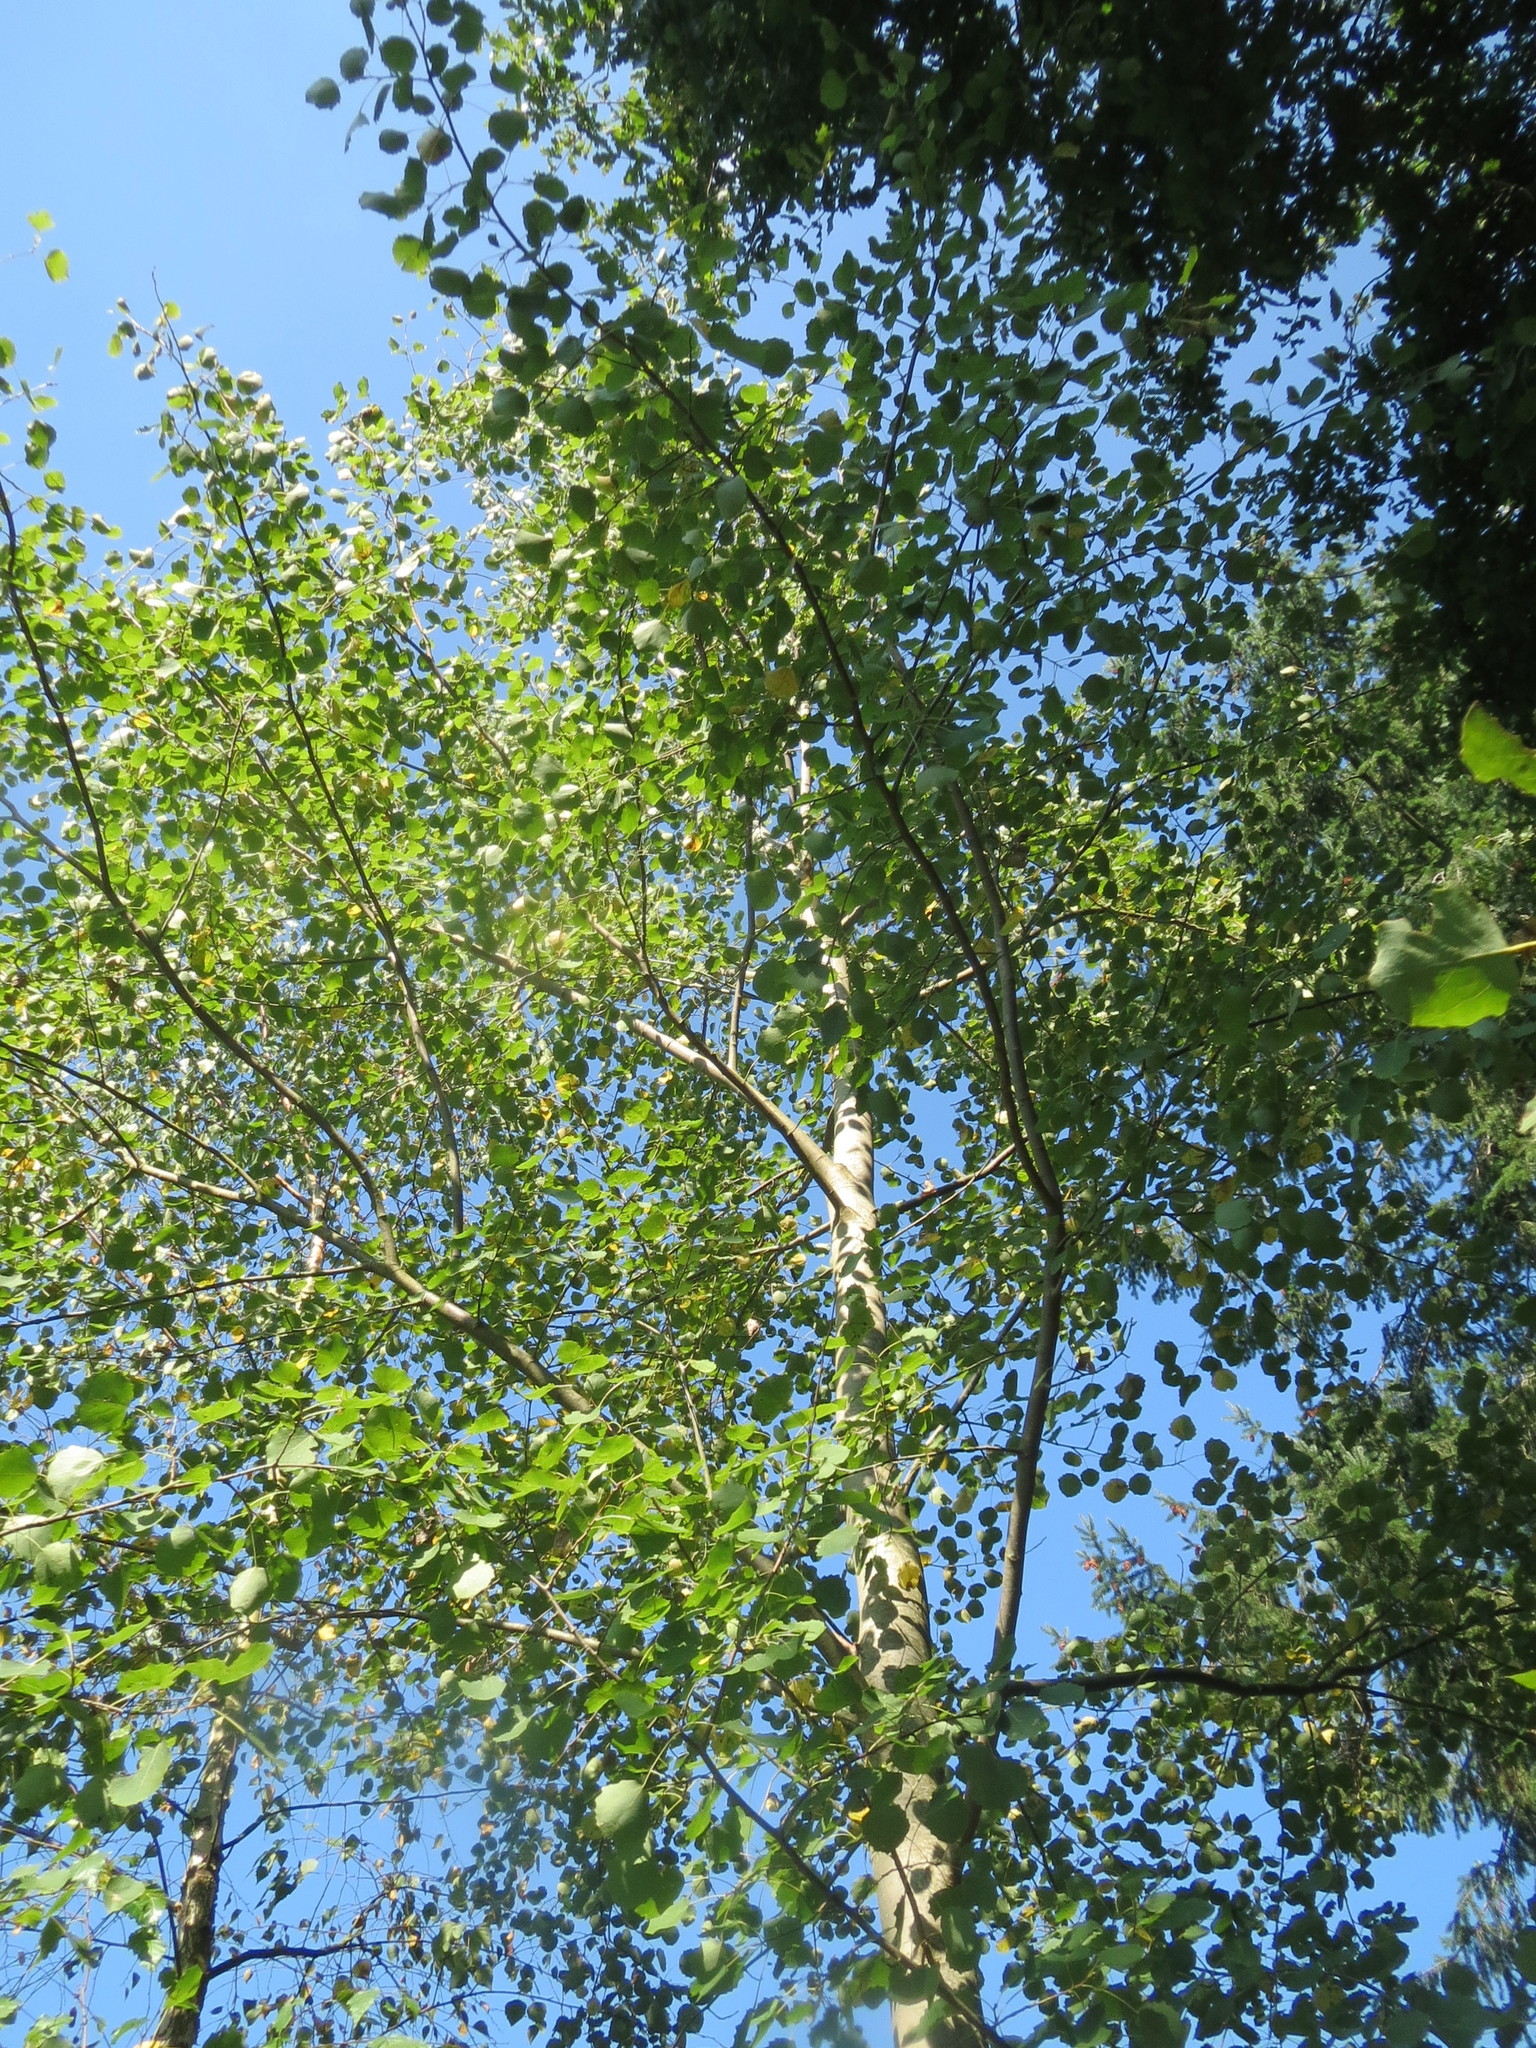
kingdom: Plantae
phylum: Tracheophyta
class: Magnoliopsida
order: Malpighiales
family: Salicaceae
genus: Populus
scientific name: Populus tremula
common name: European aspen
